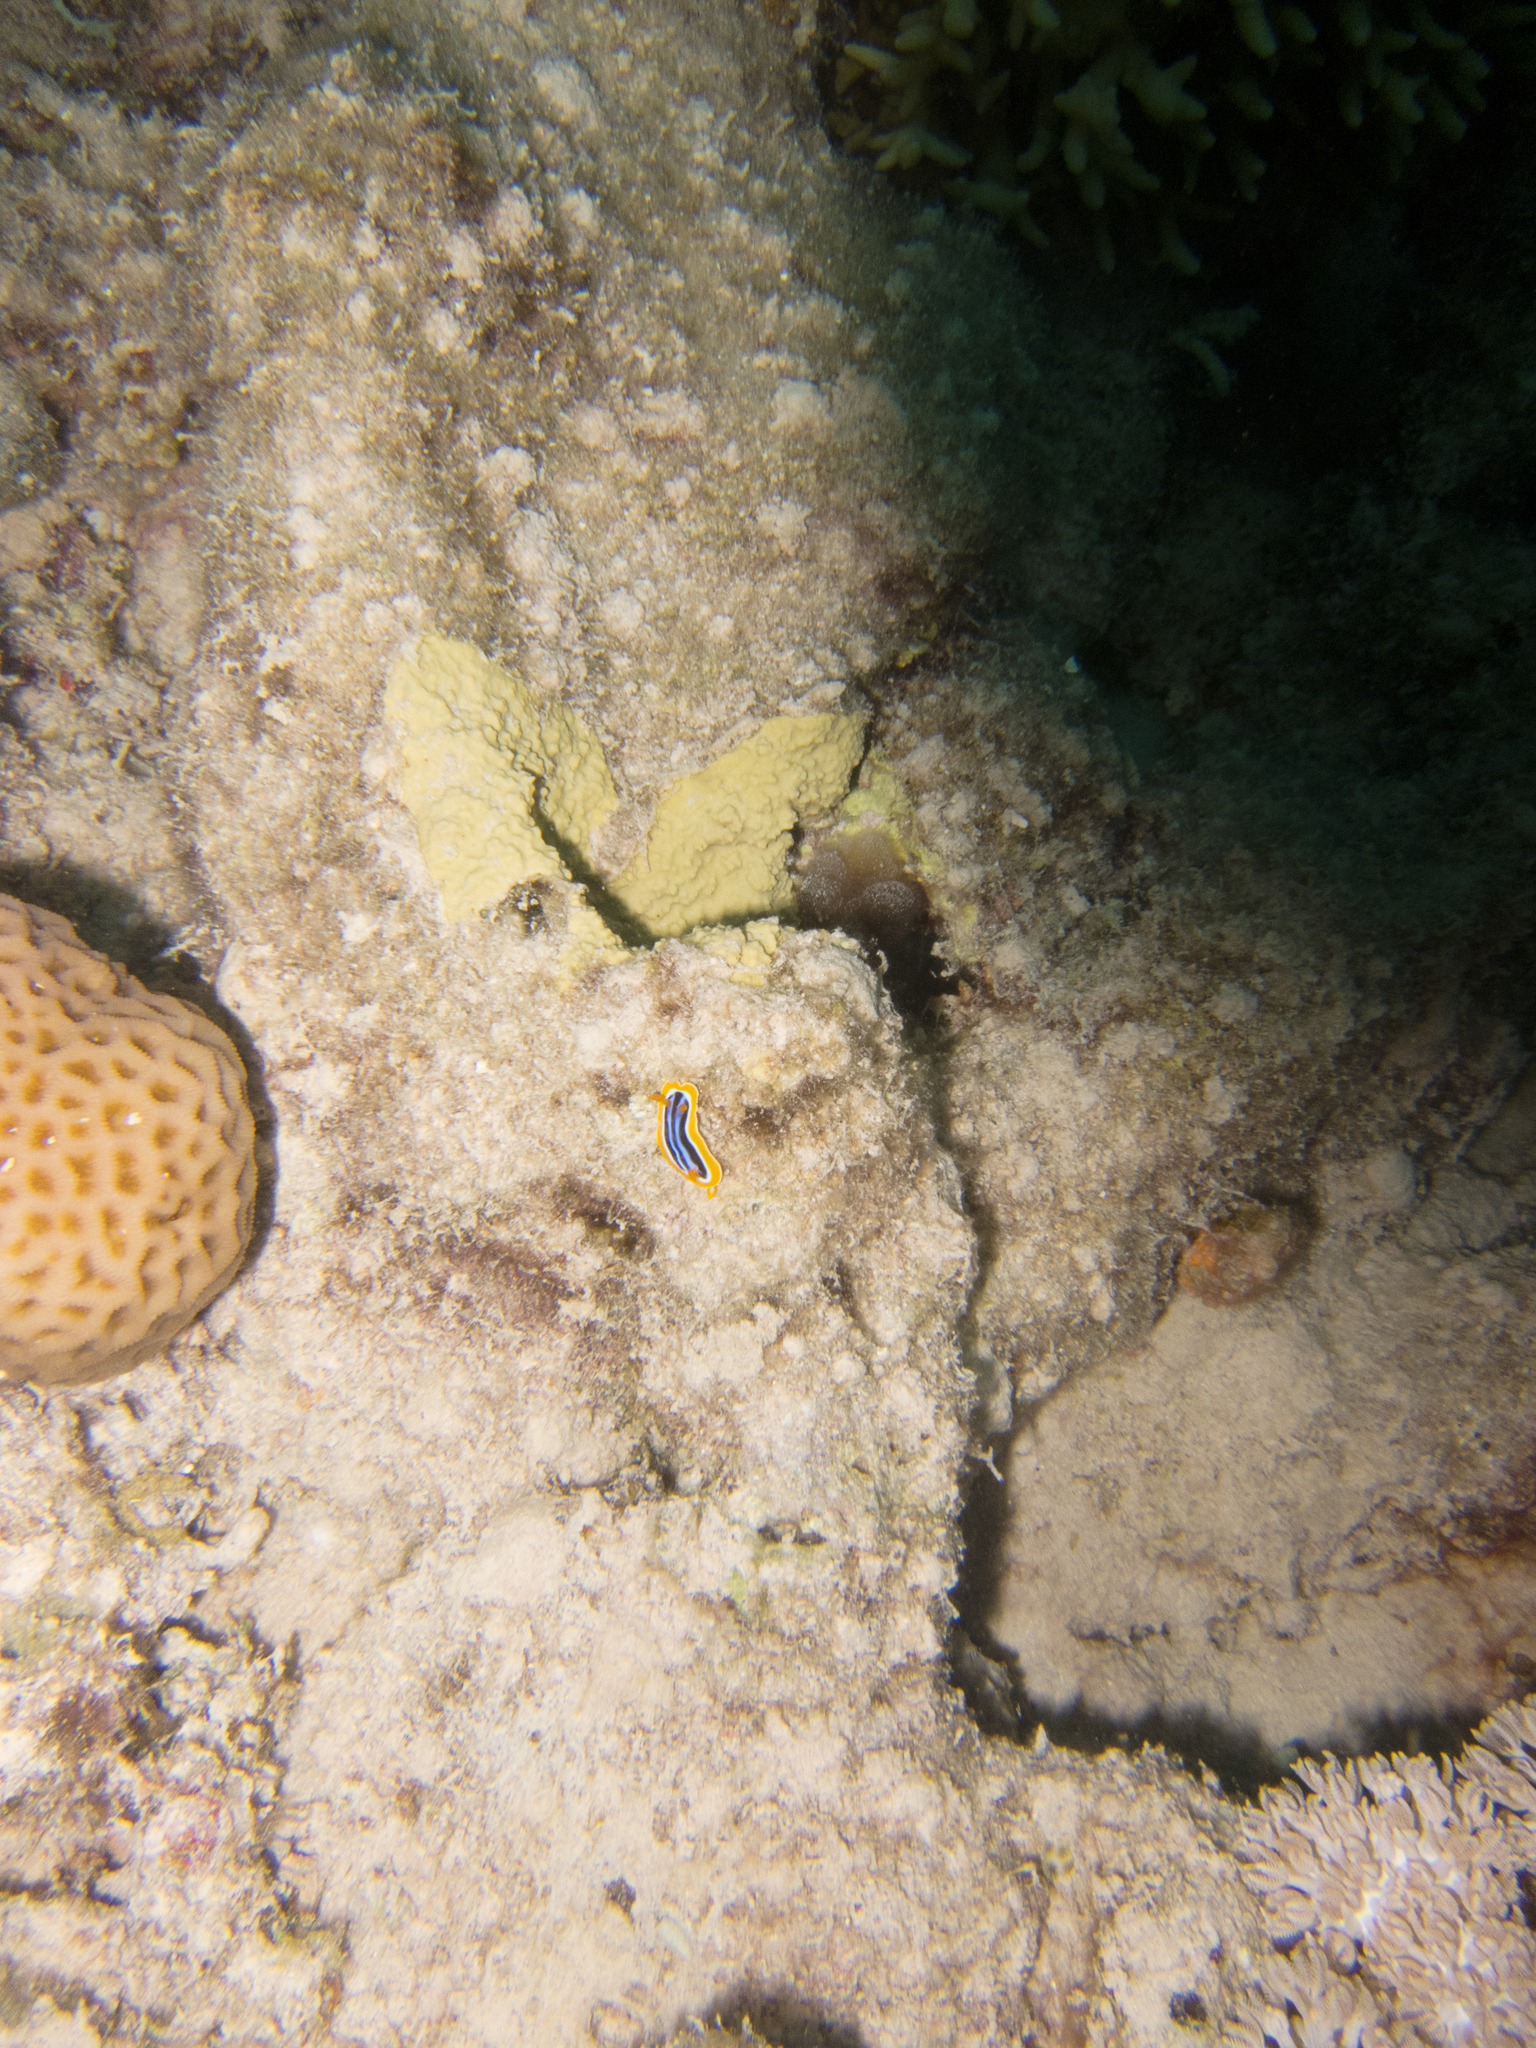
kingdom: Animalia
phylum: Mollusca
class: Gastropoda
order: Nudibranchia
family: Chromodorididae
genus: Chromodoris
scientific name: Chromodoris quadricolor
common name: Striped pyjama nudibranch
